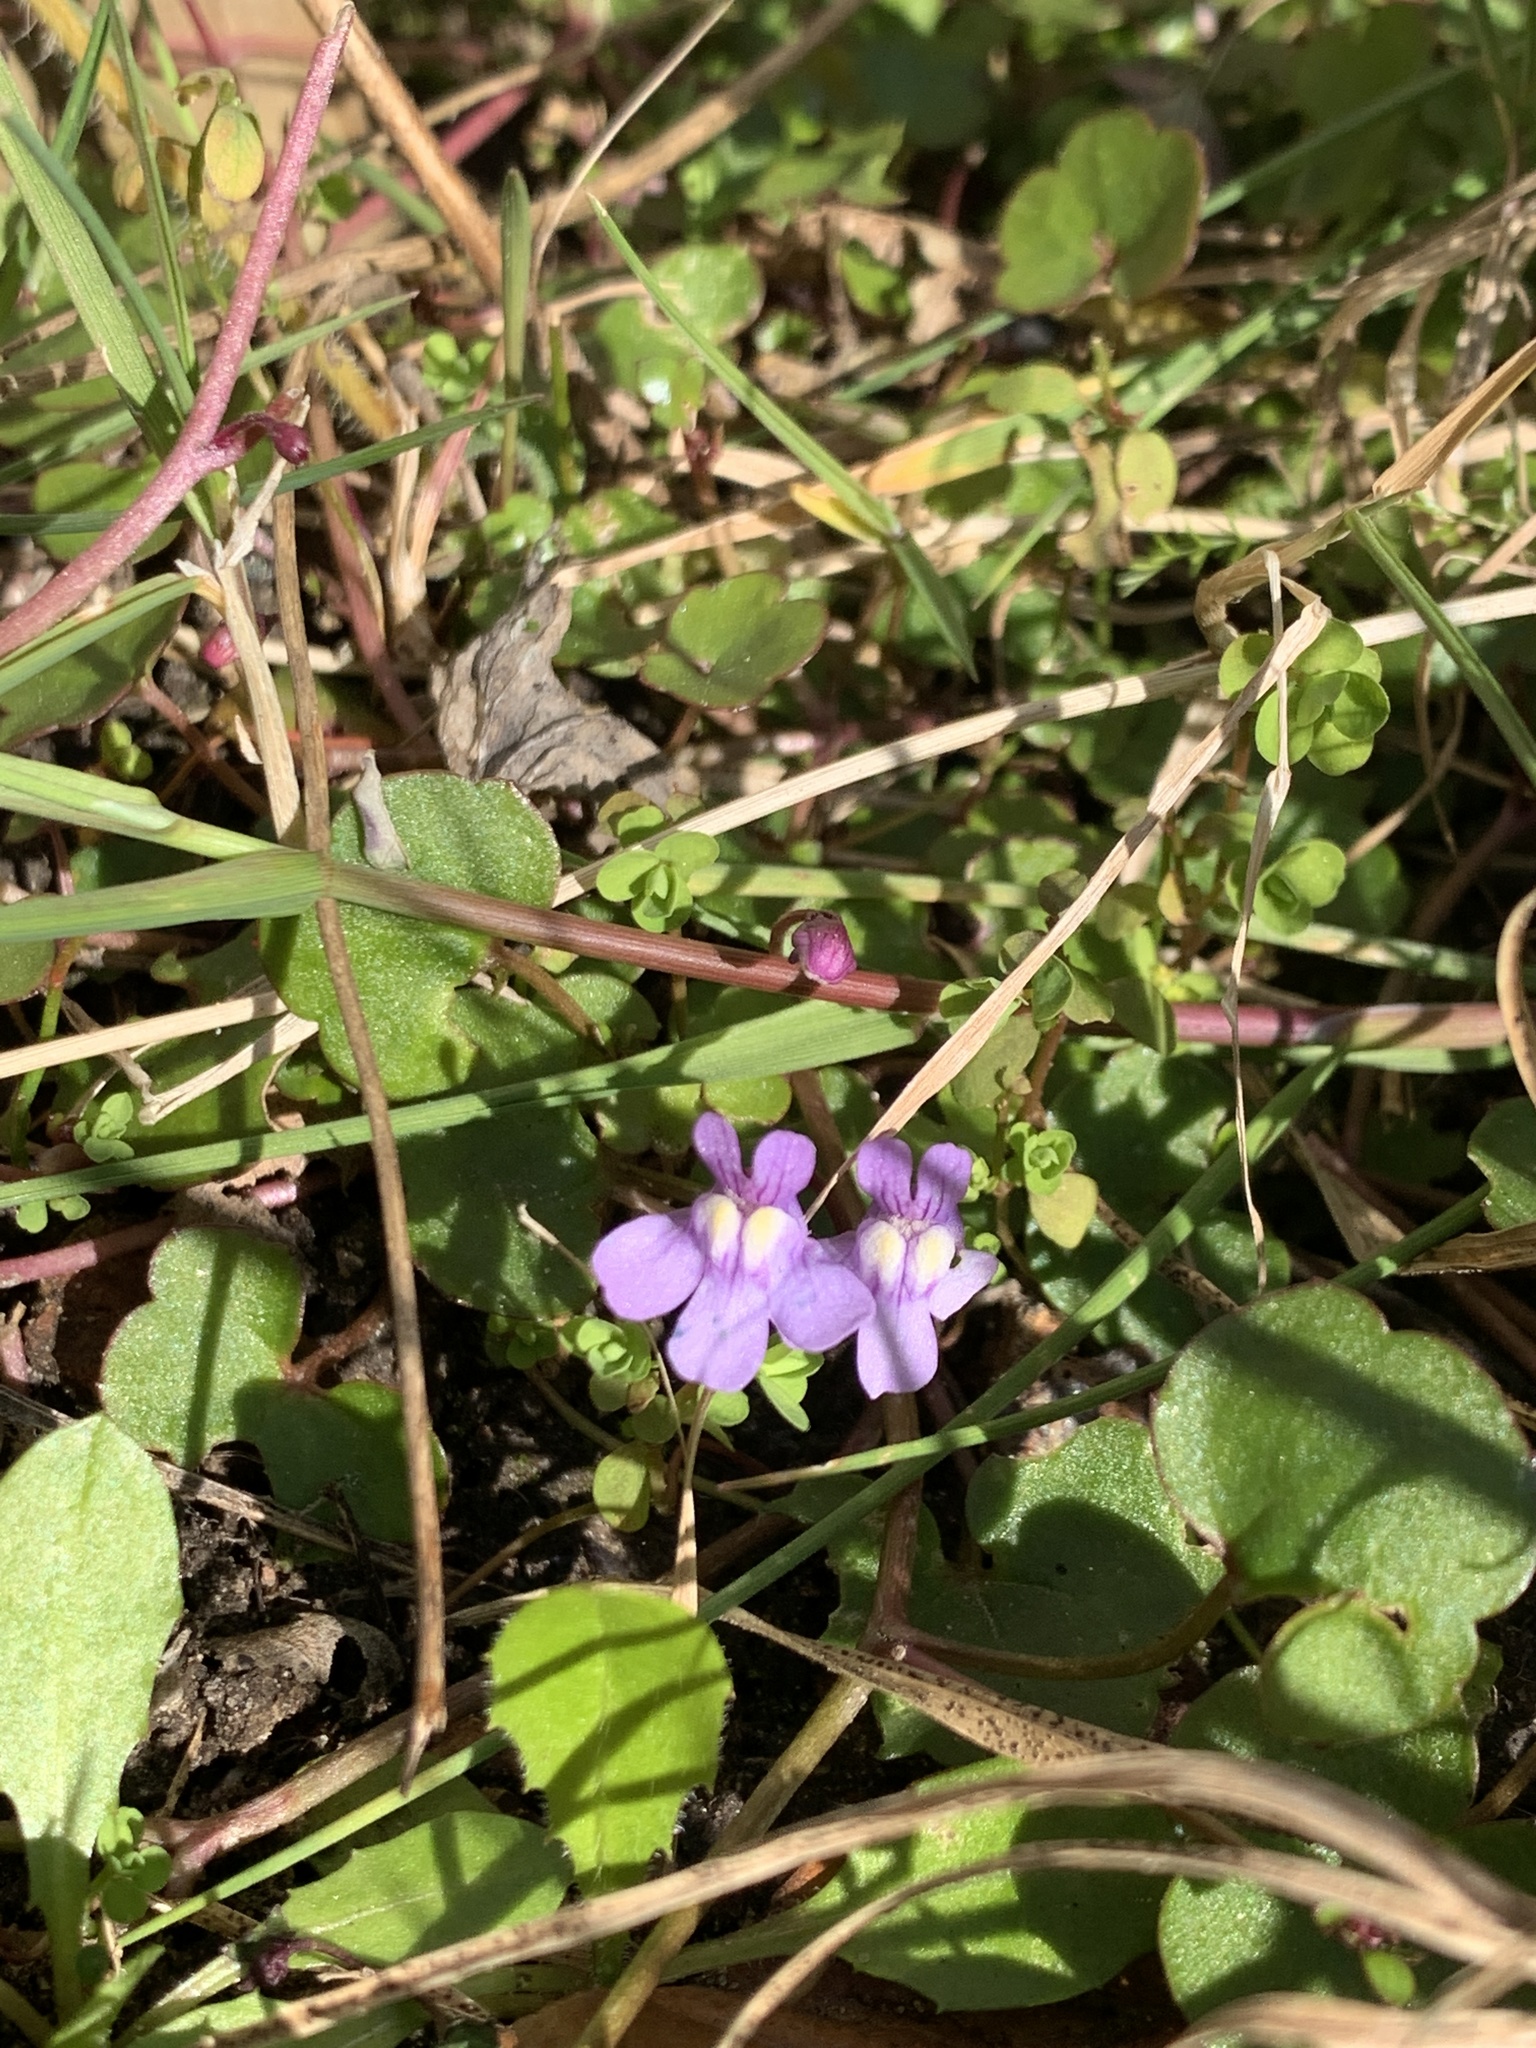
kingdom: Plantae
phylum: Tracheophyta
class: Magnoliopsida
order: Lamiales
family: Plantaginaceae
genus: Cymbalaria
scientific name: Cymbalaria muralis
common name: Ivy-leaved toadflax
